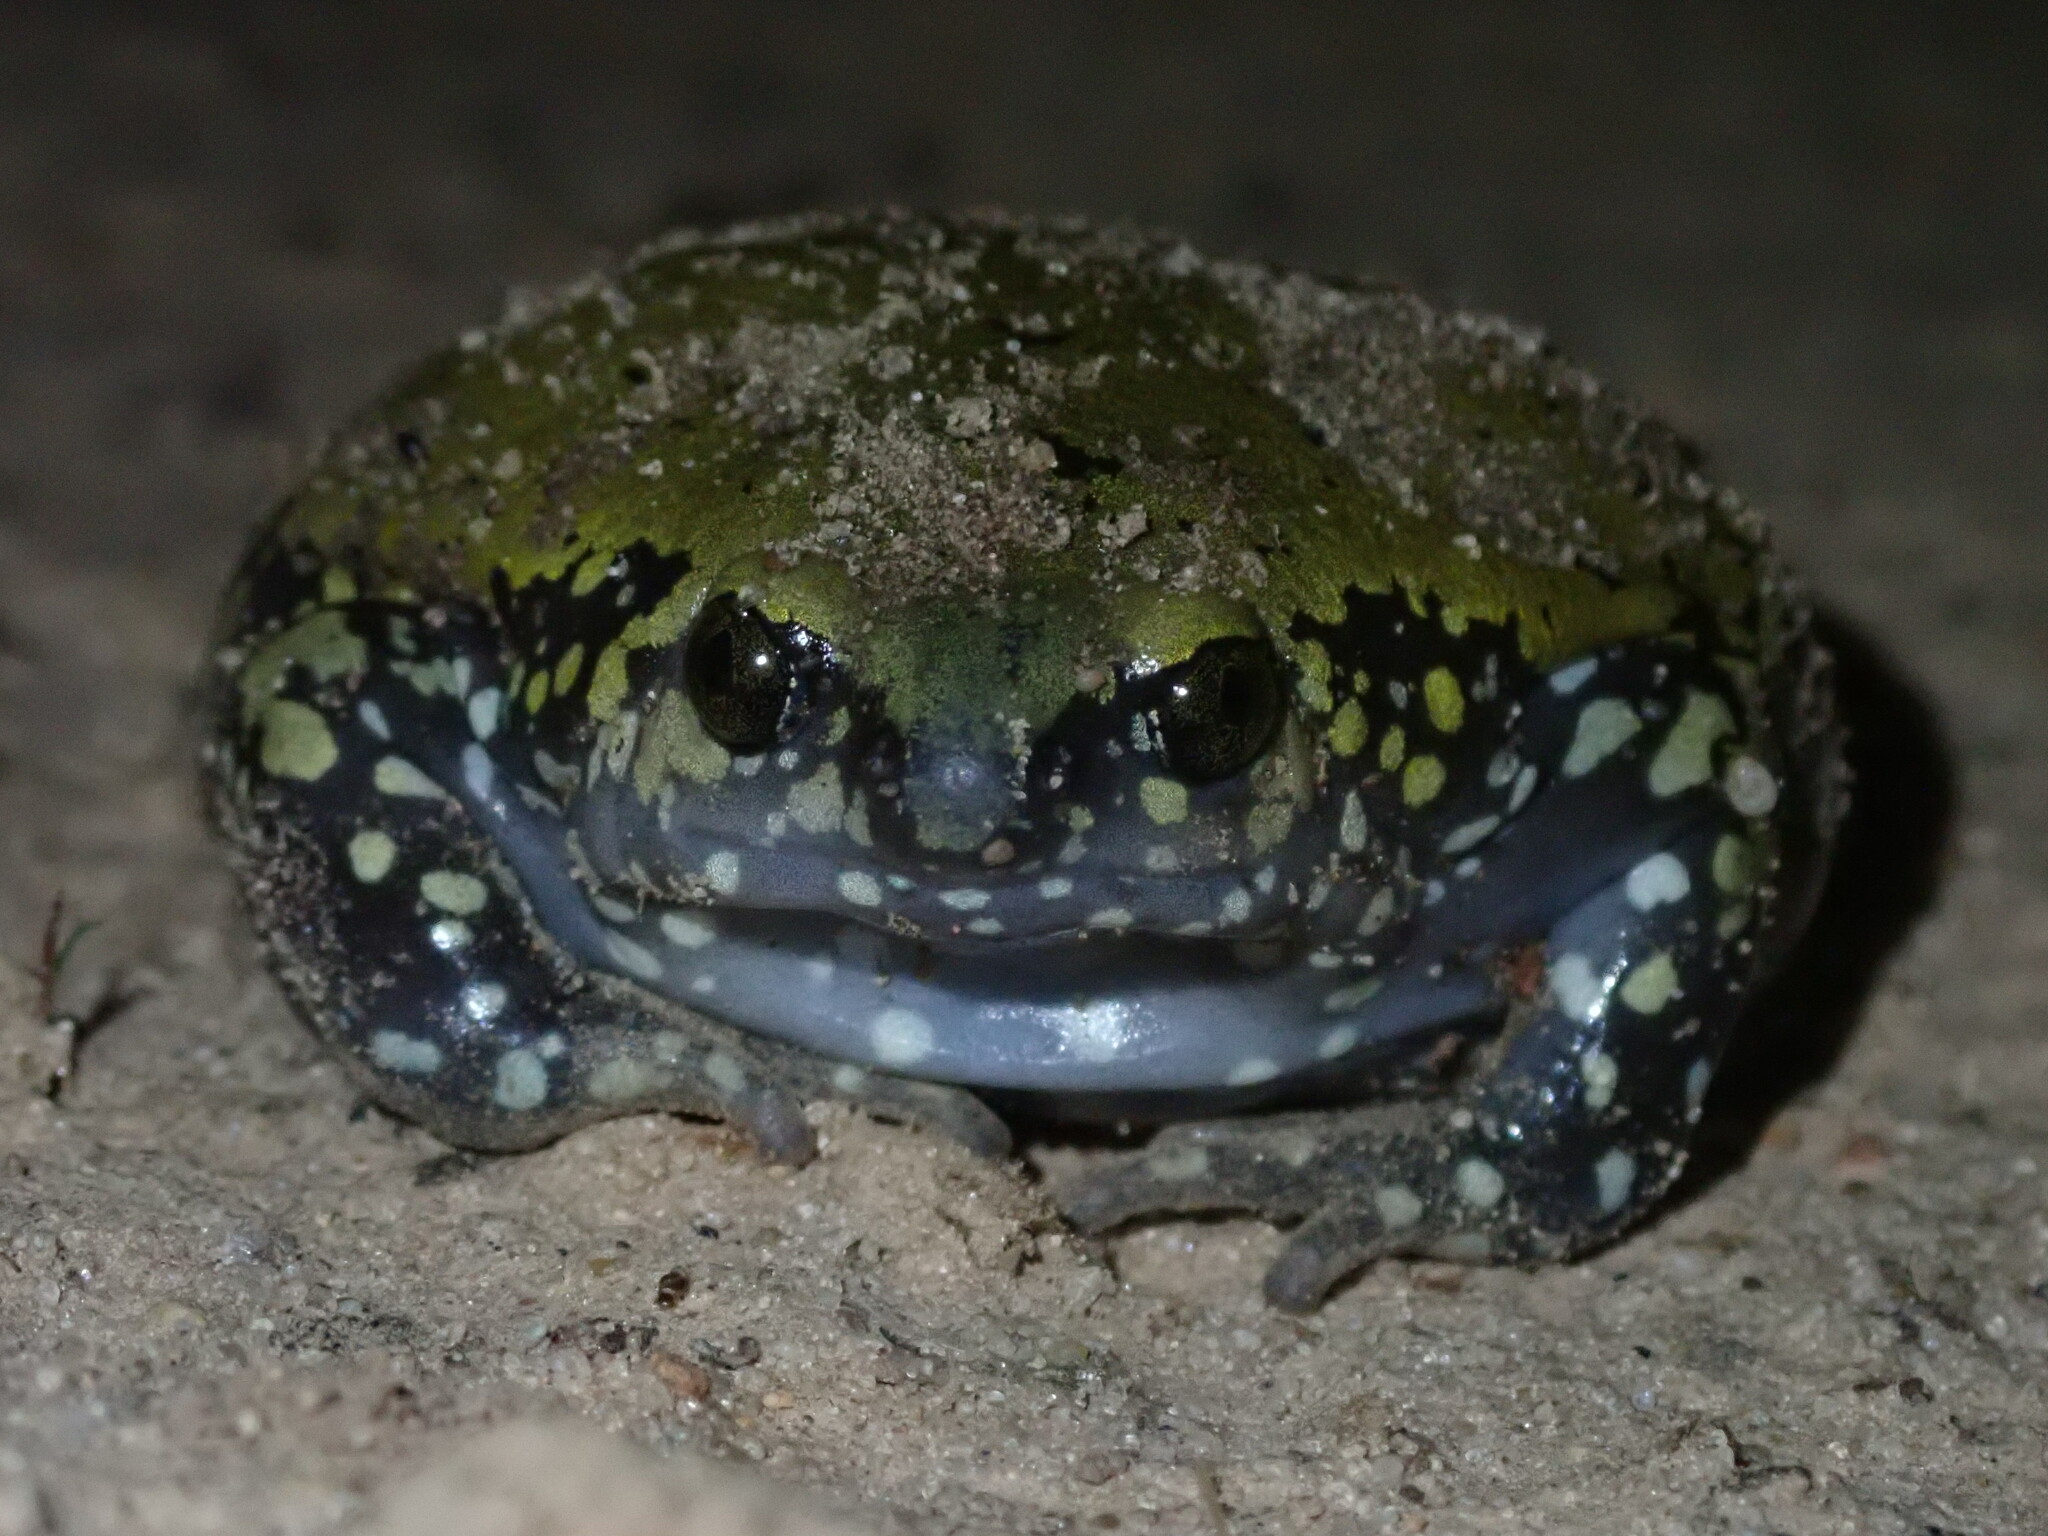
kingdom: Animalia
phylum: Chordata
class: Amphibia
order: Anura
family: Microhylidae
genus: Dermatonotus
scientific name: Dermatonotus muelleri
